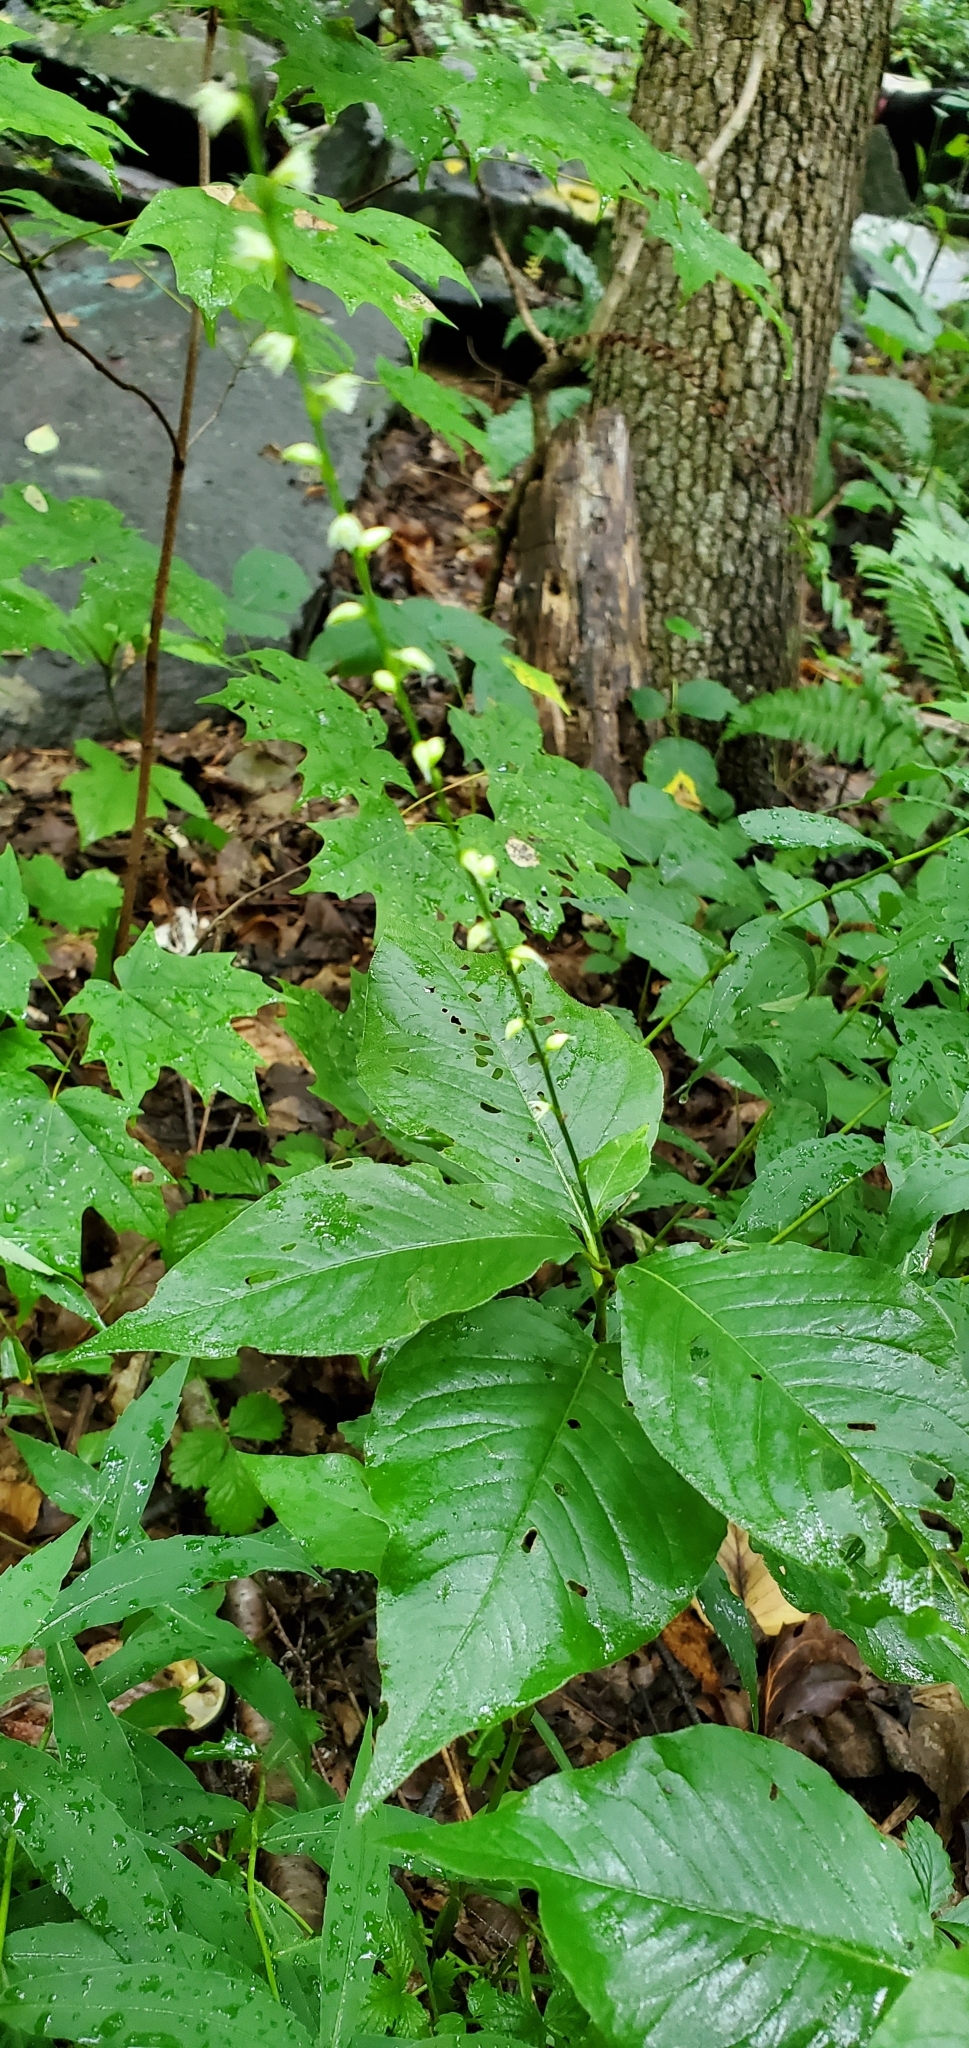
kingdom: Plantae
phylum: Tracheophyta
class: Magnoliopsida
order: Caryophyllales
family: Polygonaceae
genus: Persicaria
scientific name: Persicaria virginiana
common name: Jumpseed
